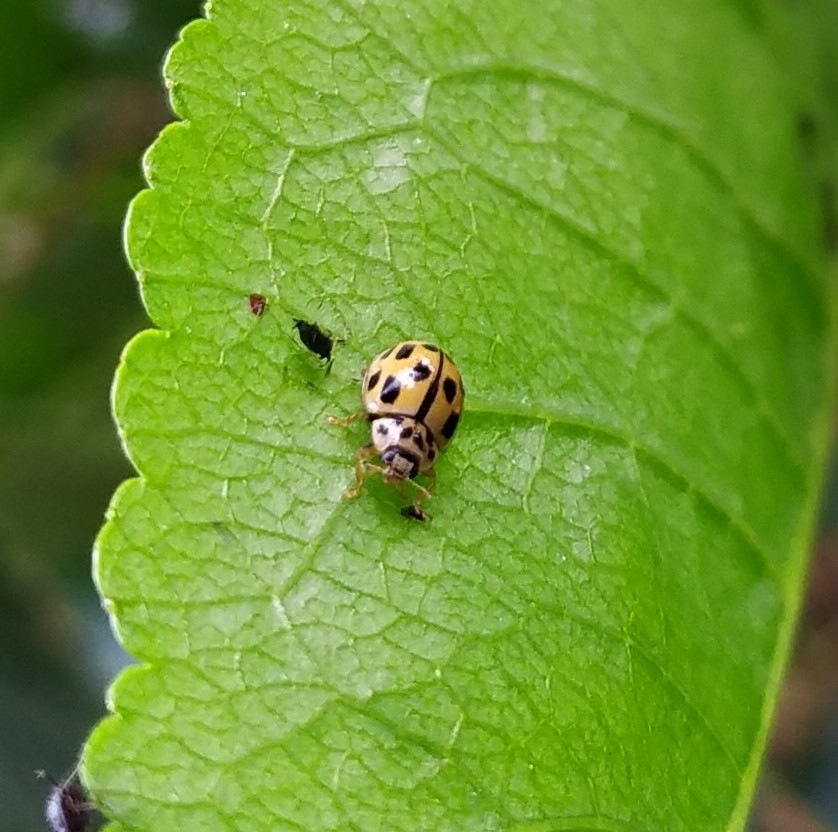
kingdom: Animalia
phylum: Arthropoda
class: Insecta
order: Coleoptera
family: Coccinellidae
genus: Propylaea
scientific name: Propylaea quatuordecimpunctata
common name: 14-spotted ladybird beetle
